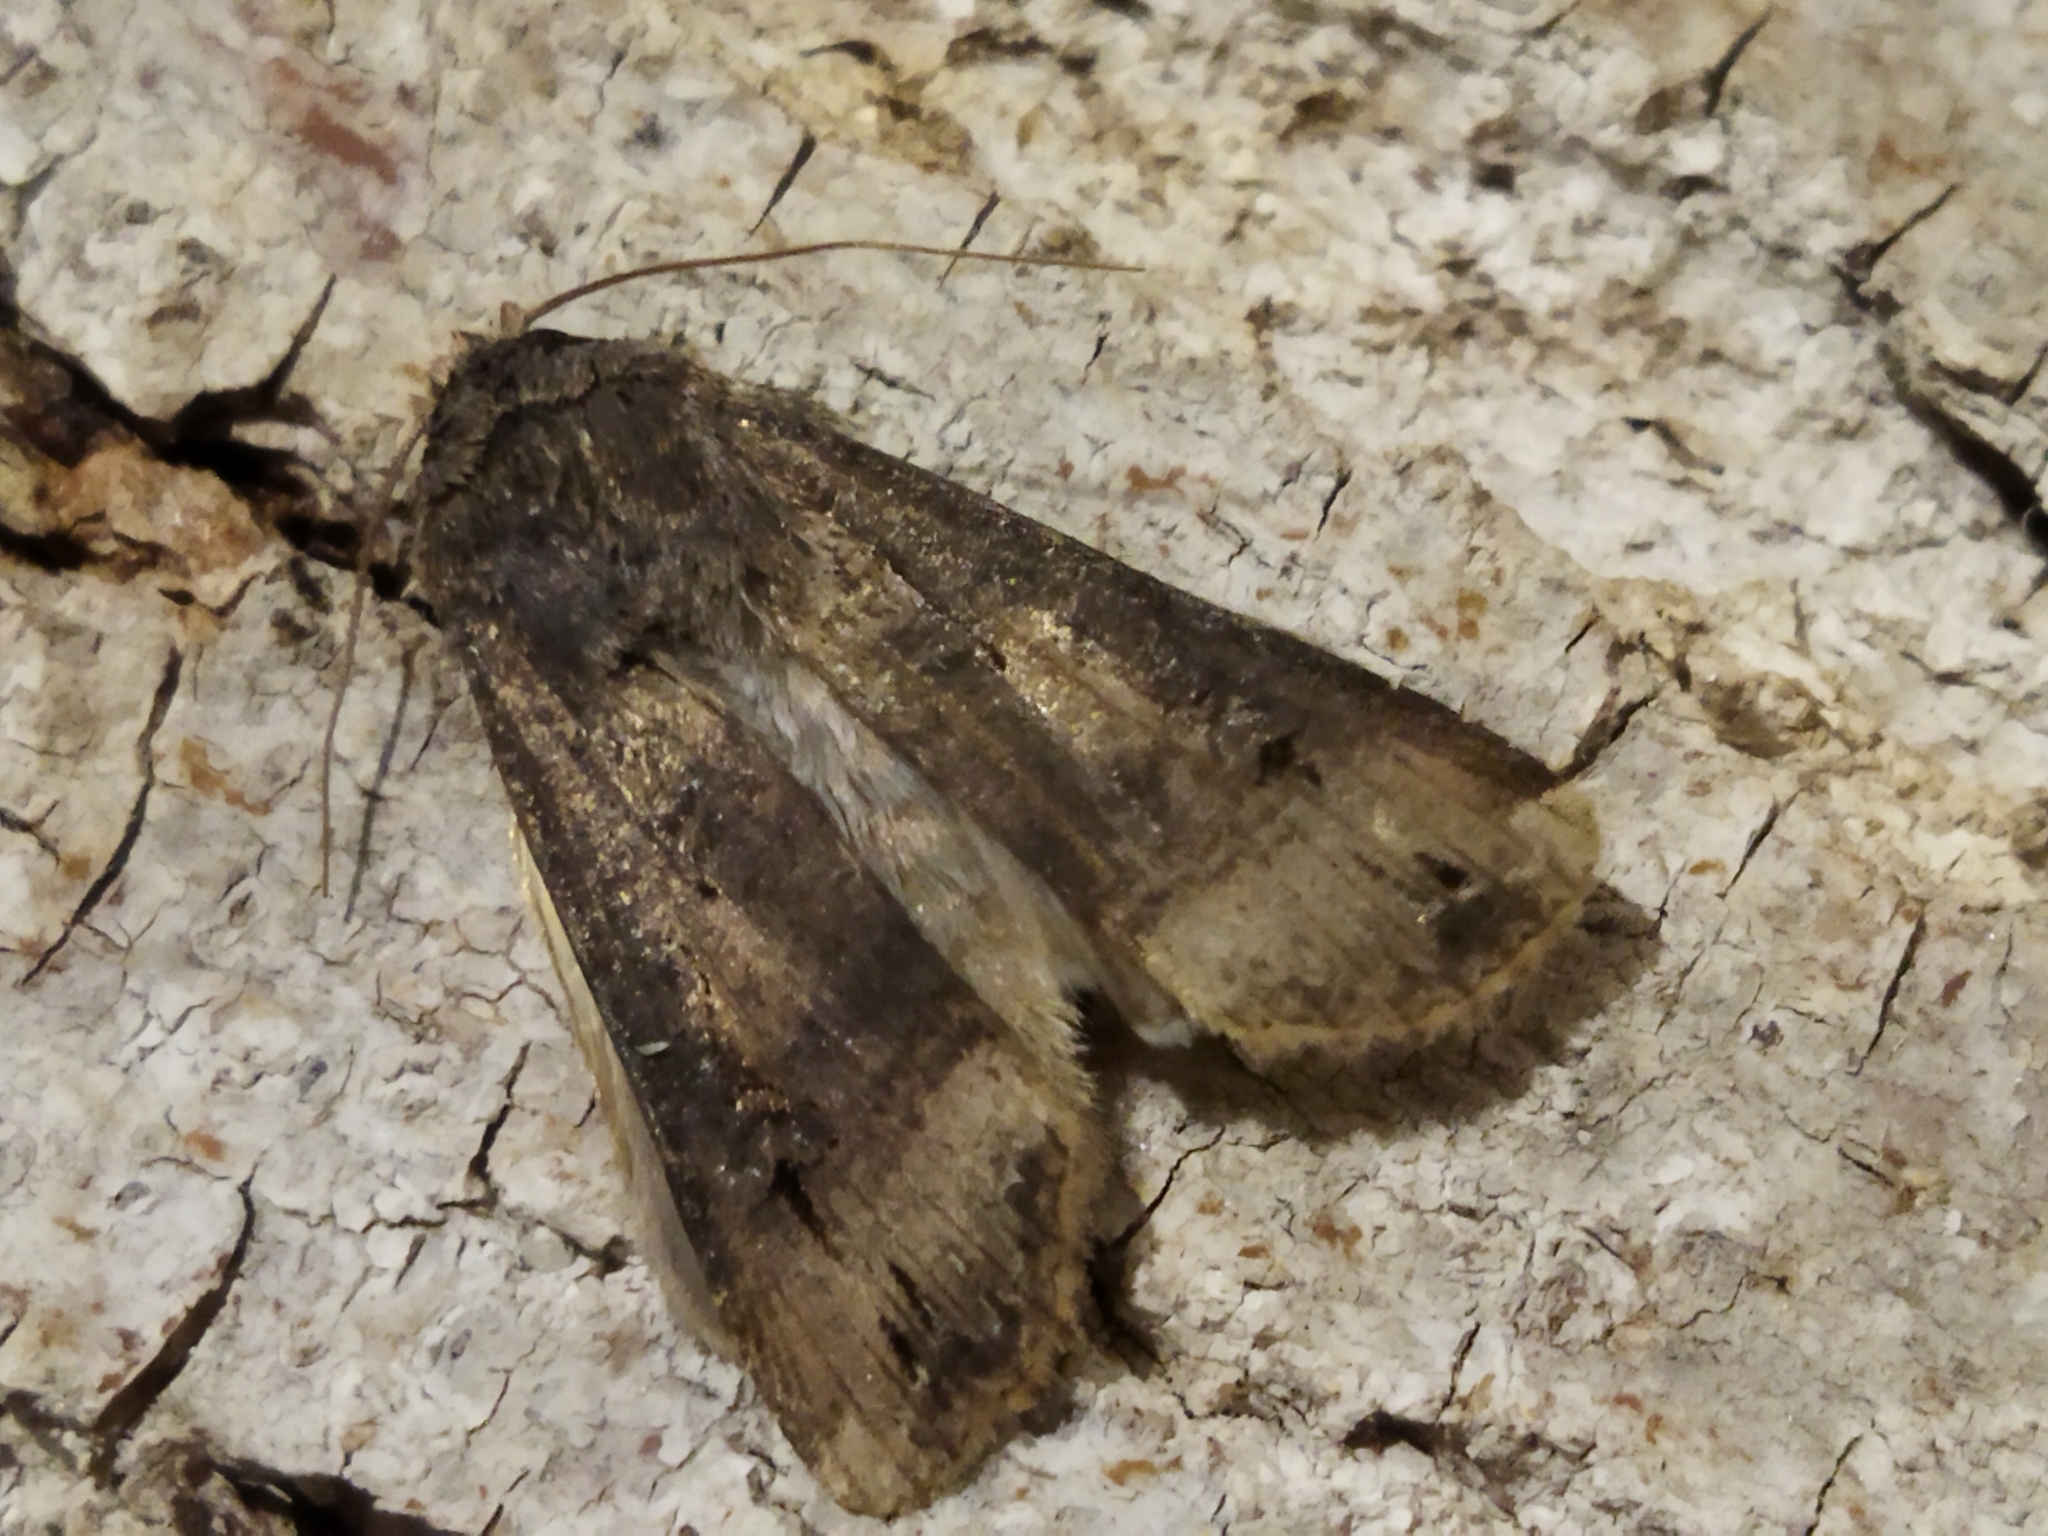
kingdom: Animalia
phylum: Arthropoda
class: Insecta
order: Lepidoptera
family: Noctuidae
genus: Agrotis
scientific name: Agrotis ipsilon
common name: Dark sword-grass
